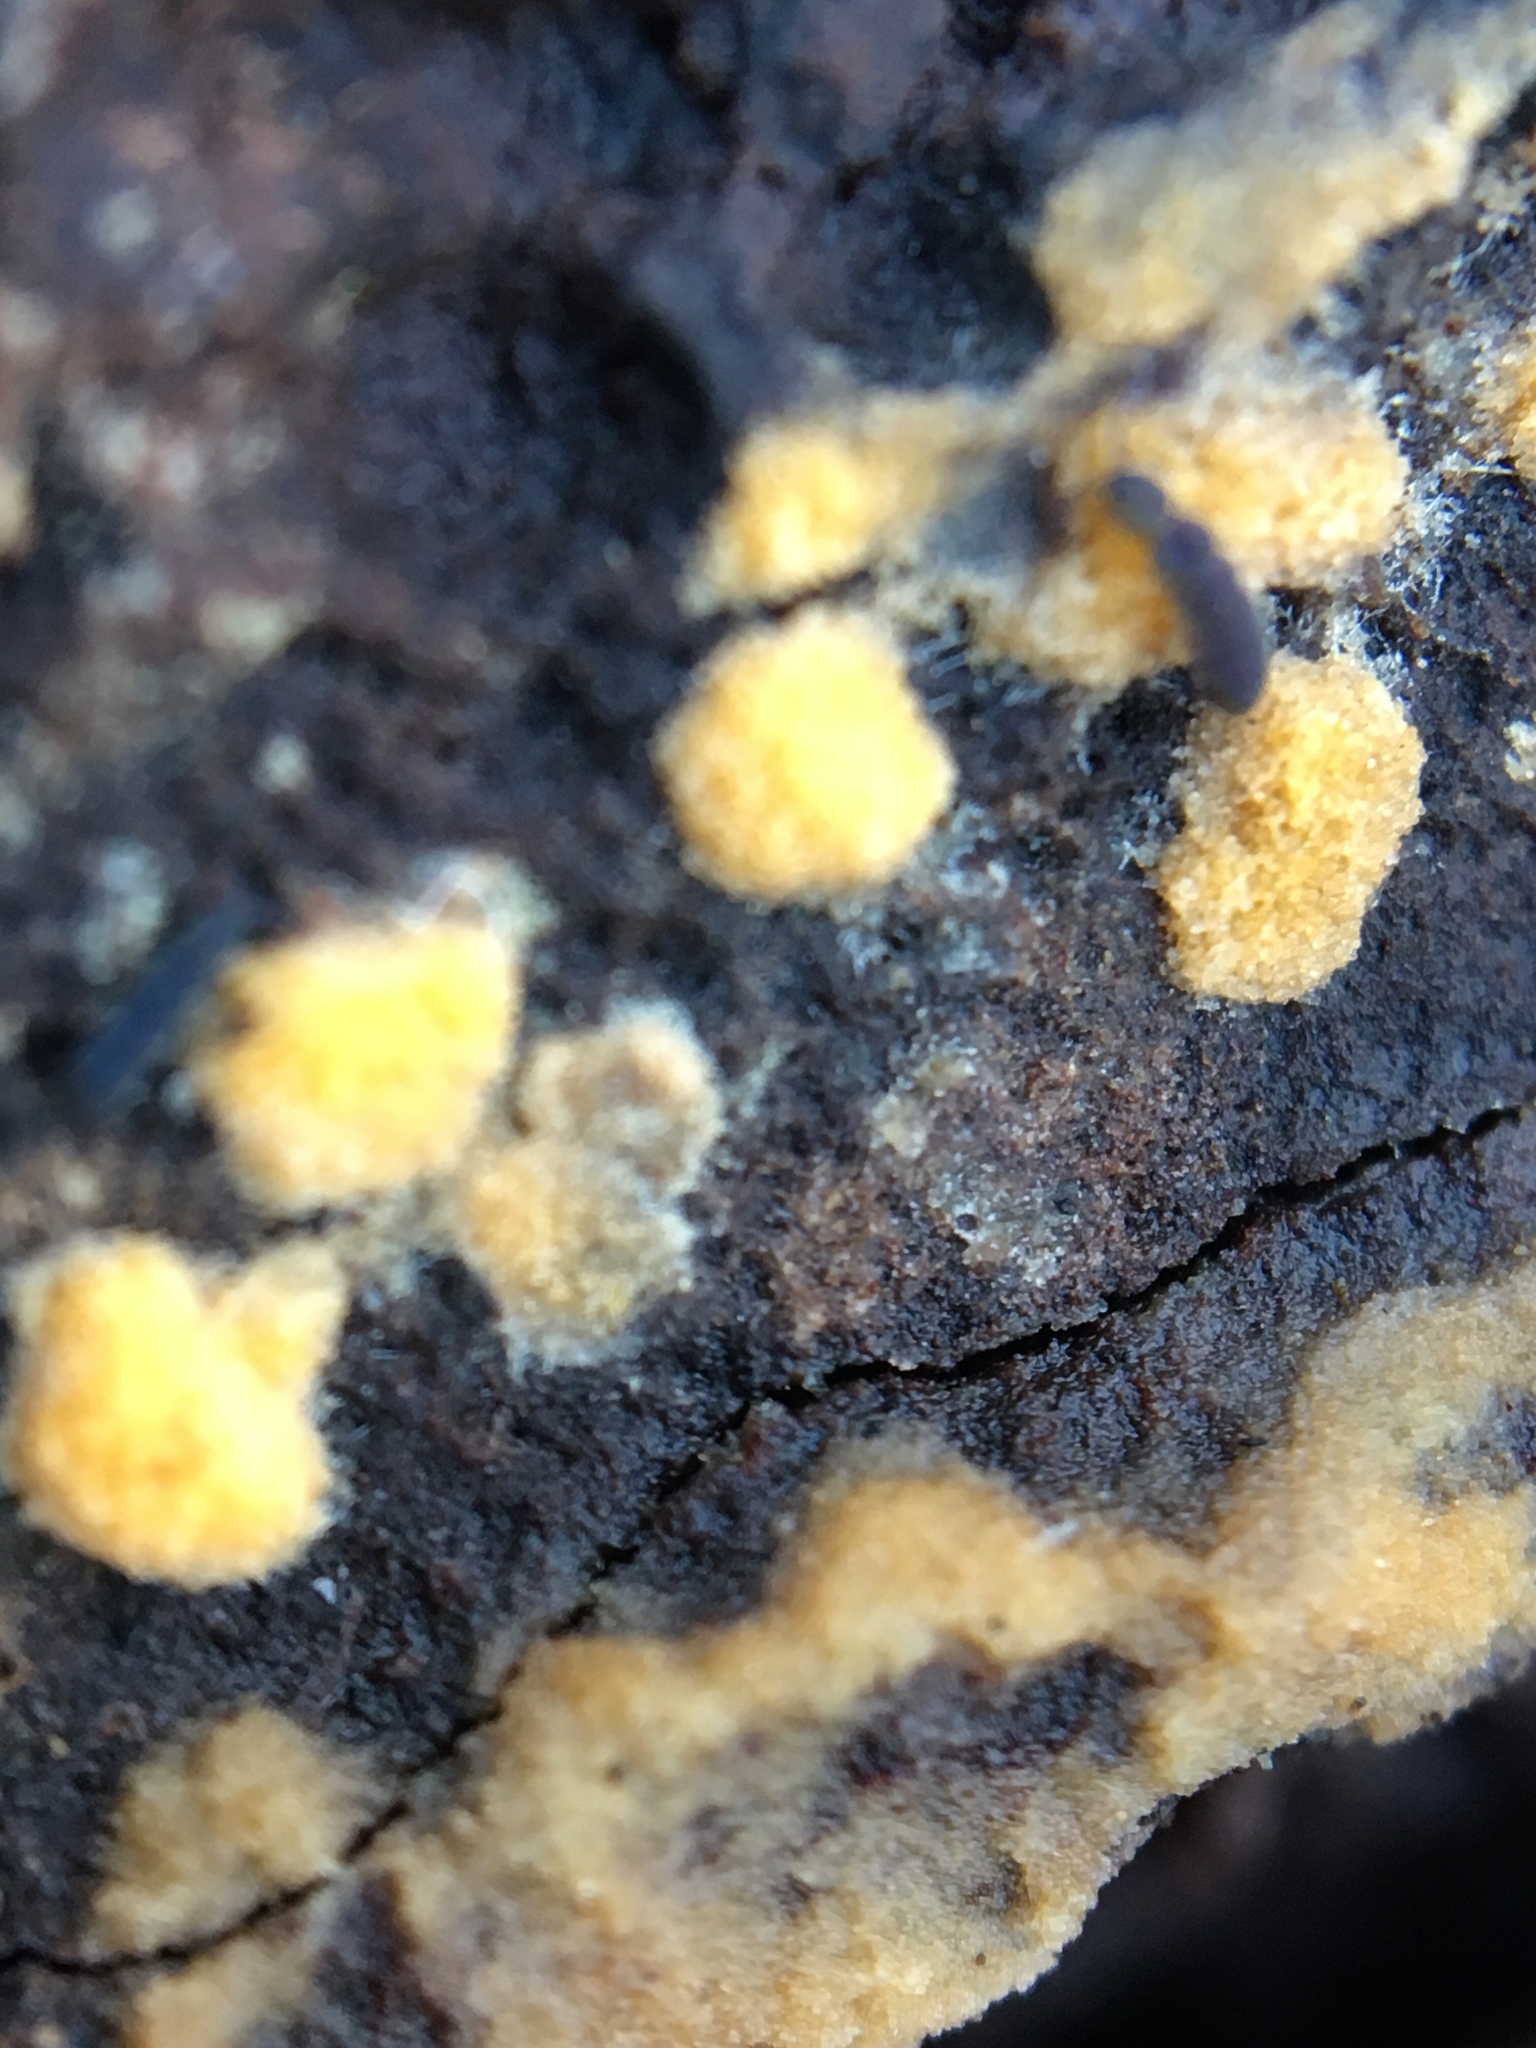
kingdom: Fungi
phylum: Ascomycota
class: Pezizomycetes
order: Pezizales
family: Pyronemataceae
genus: Sphaerosporium
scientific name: Sphaerosporium lignatile
